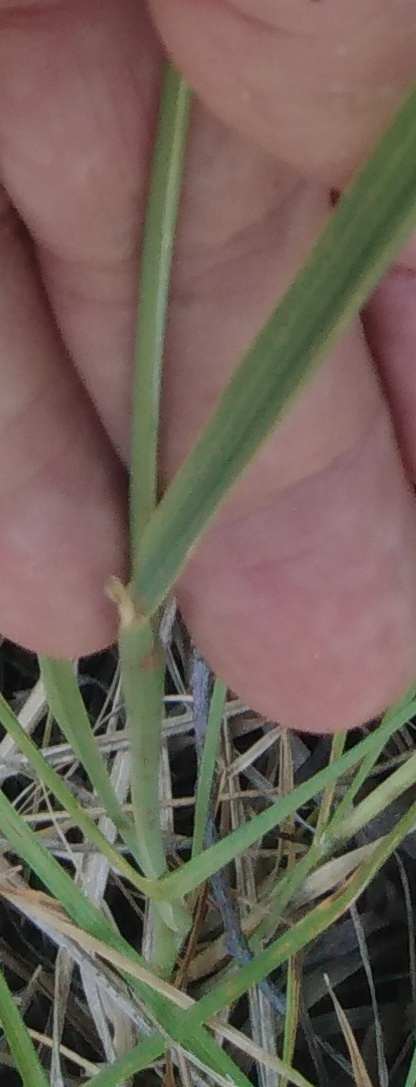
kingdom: Plantae
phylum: Tracheophyta
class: Liliopsida
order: Poales
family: Poaceae
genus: Calamagrostis
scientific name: Calamagrostis epigejos
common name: Wood small-reed
